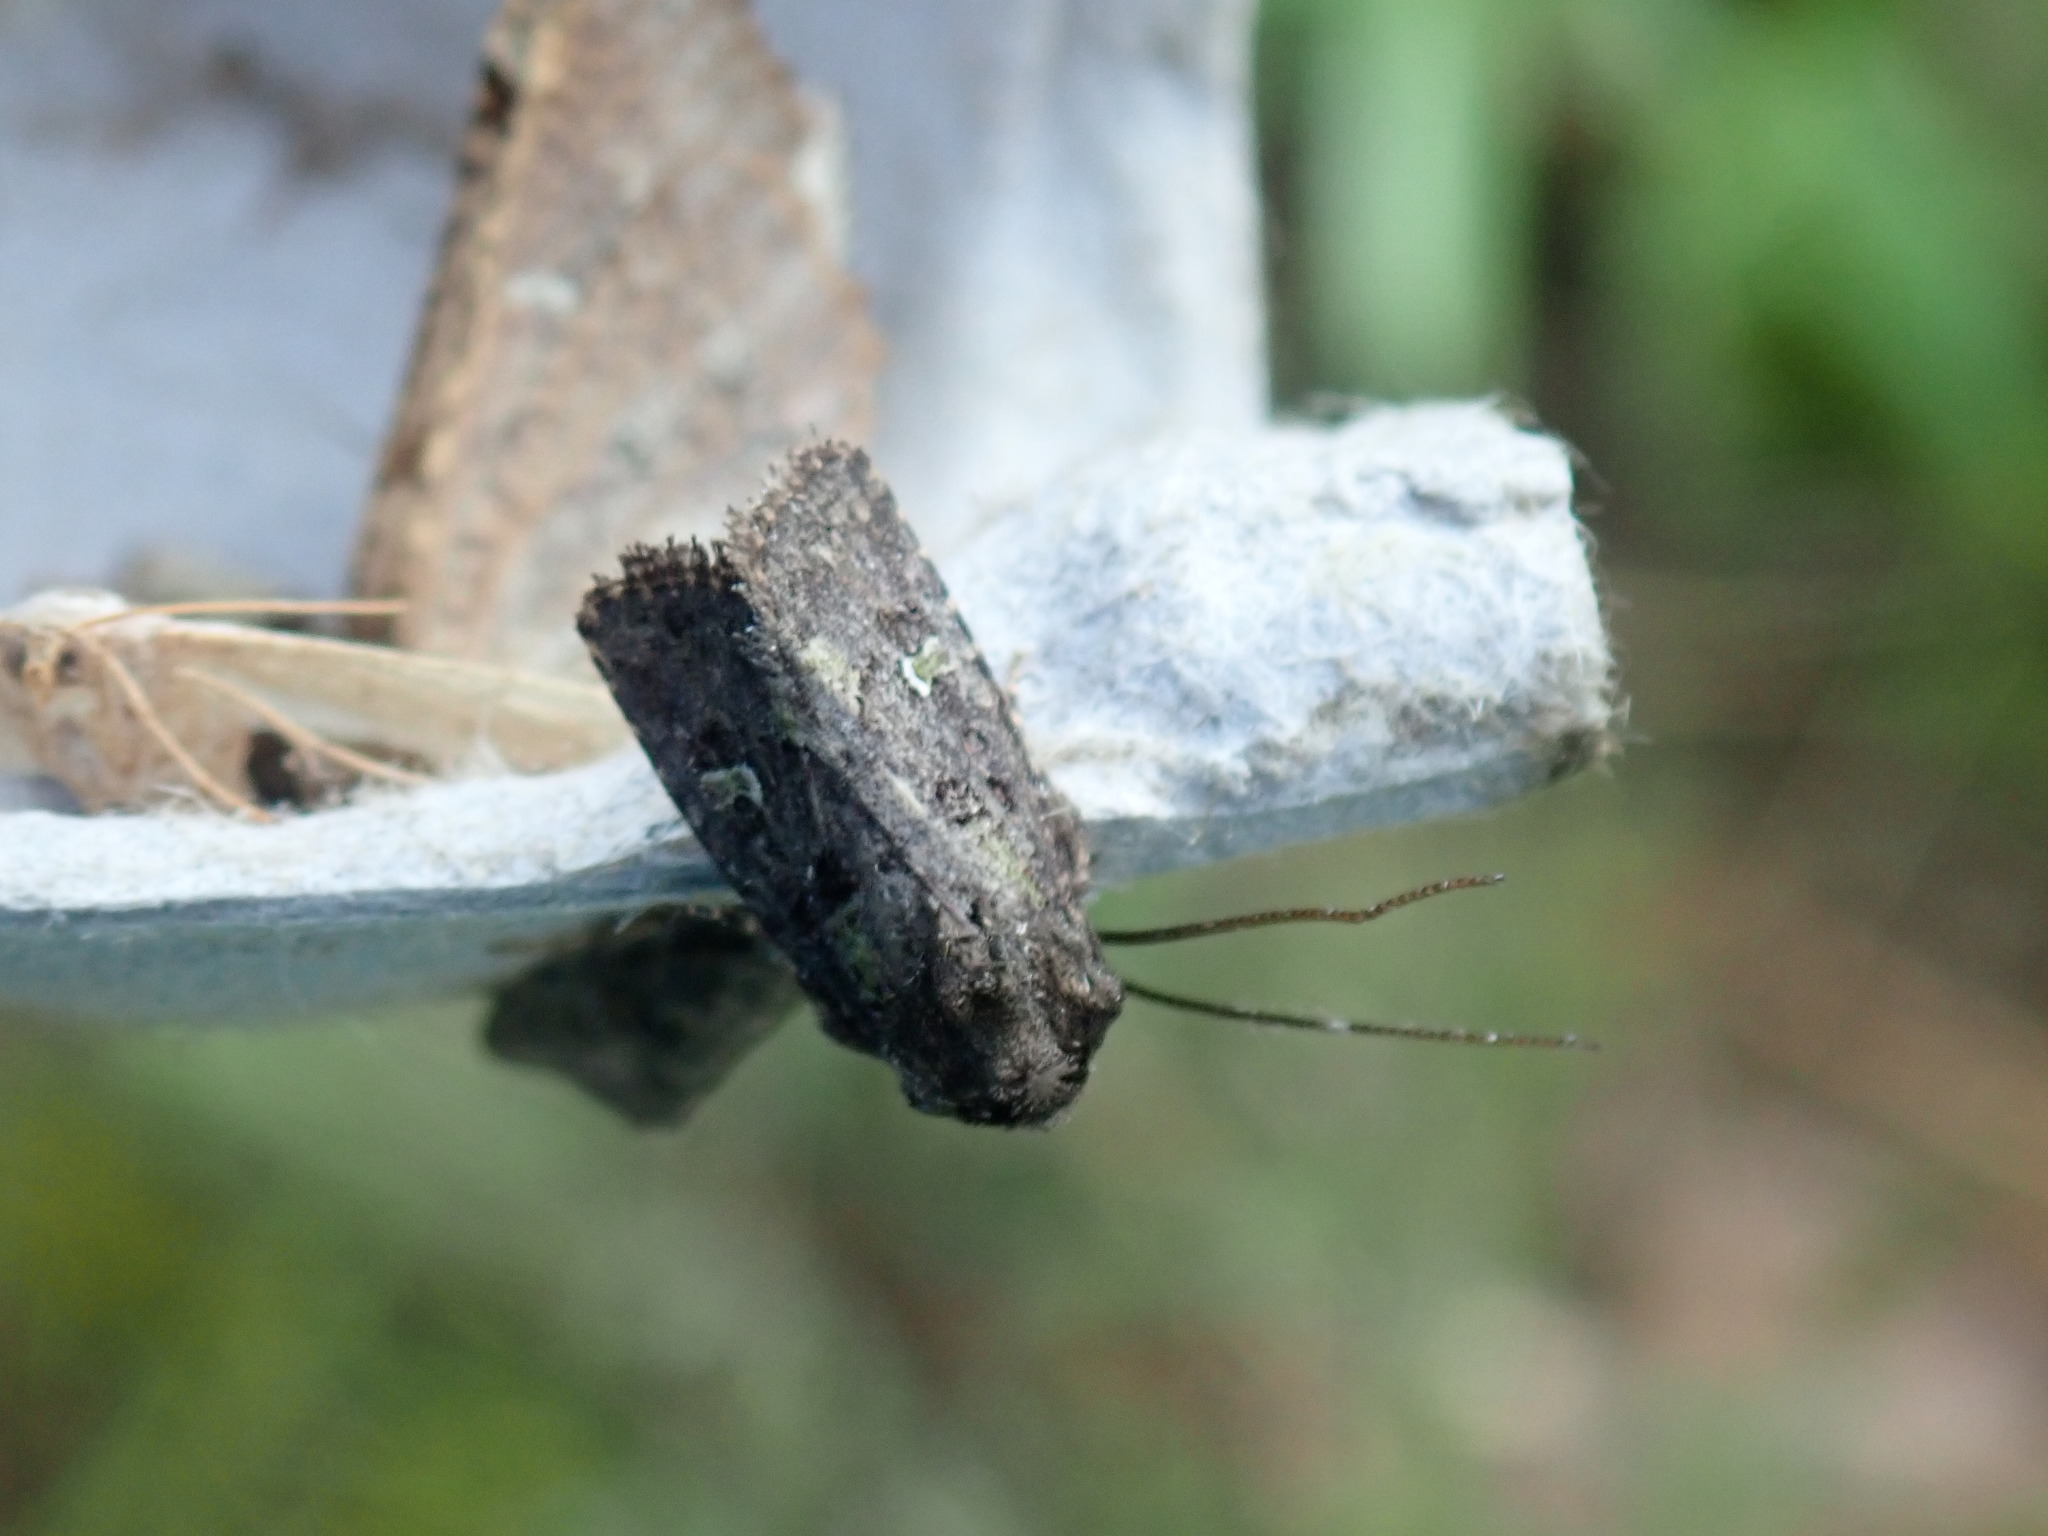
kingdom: Animalia
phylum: Arthropoda
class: Insecta
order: Lepidoptera
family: Noctuidae
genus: Lacinipolia
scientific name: Lacinipolia renigera
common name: Kidney-spotted minor
